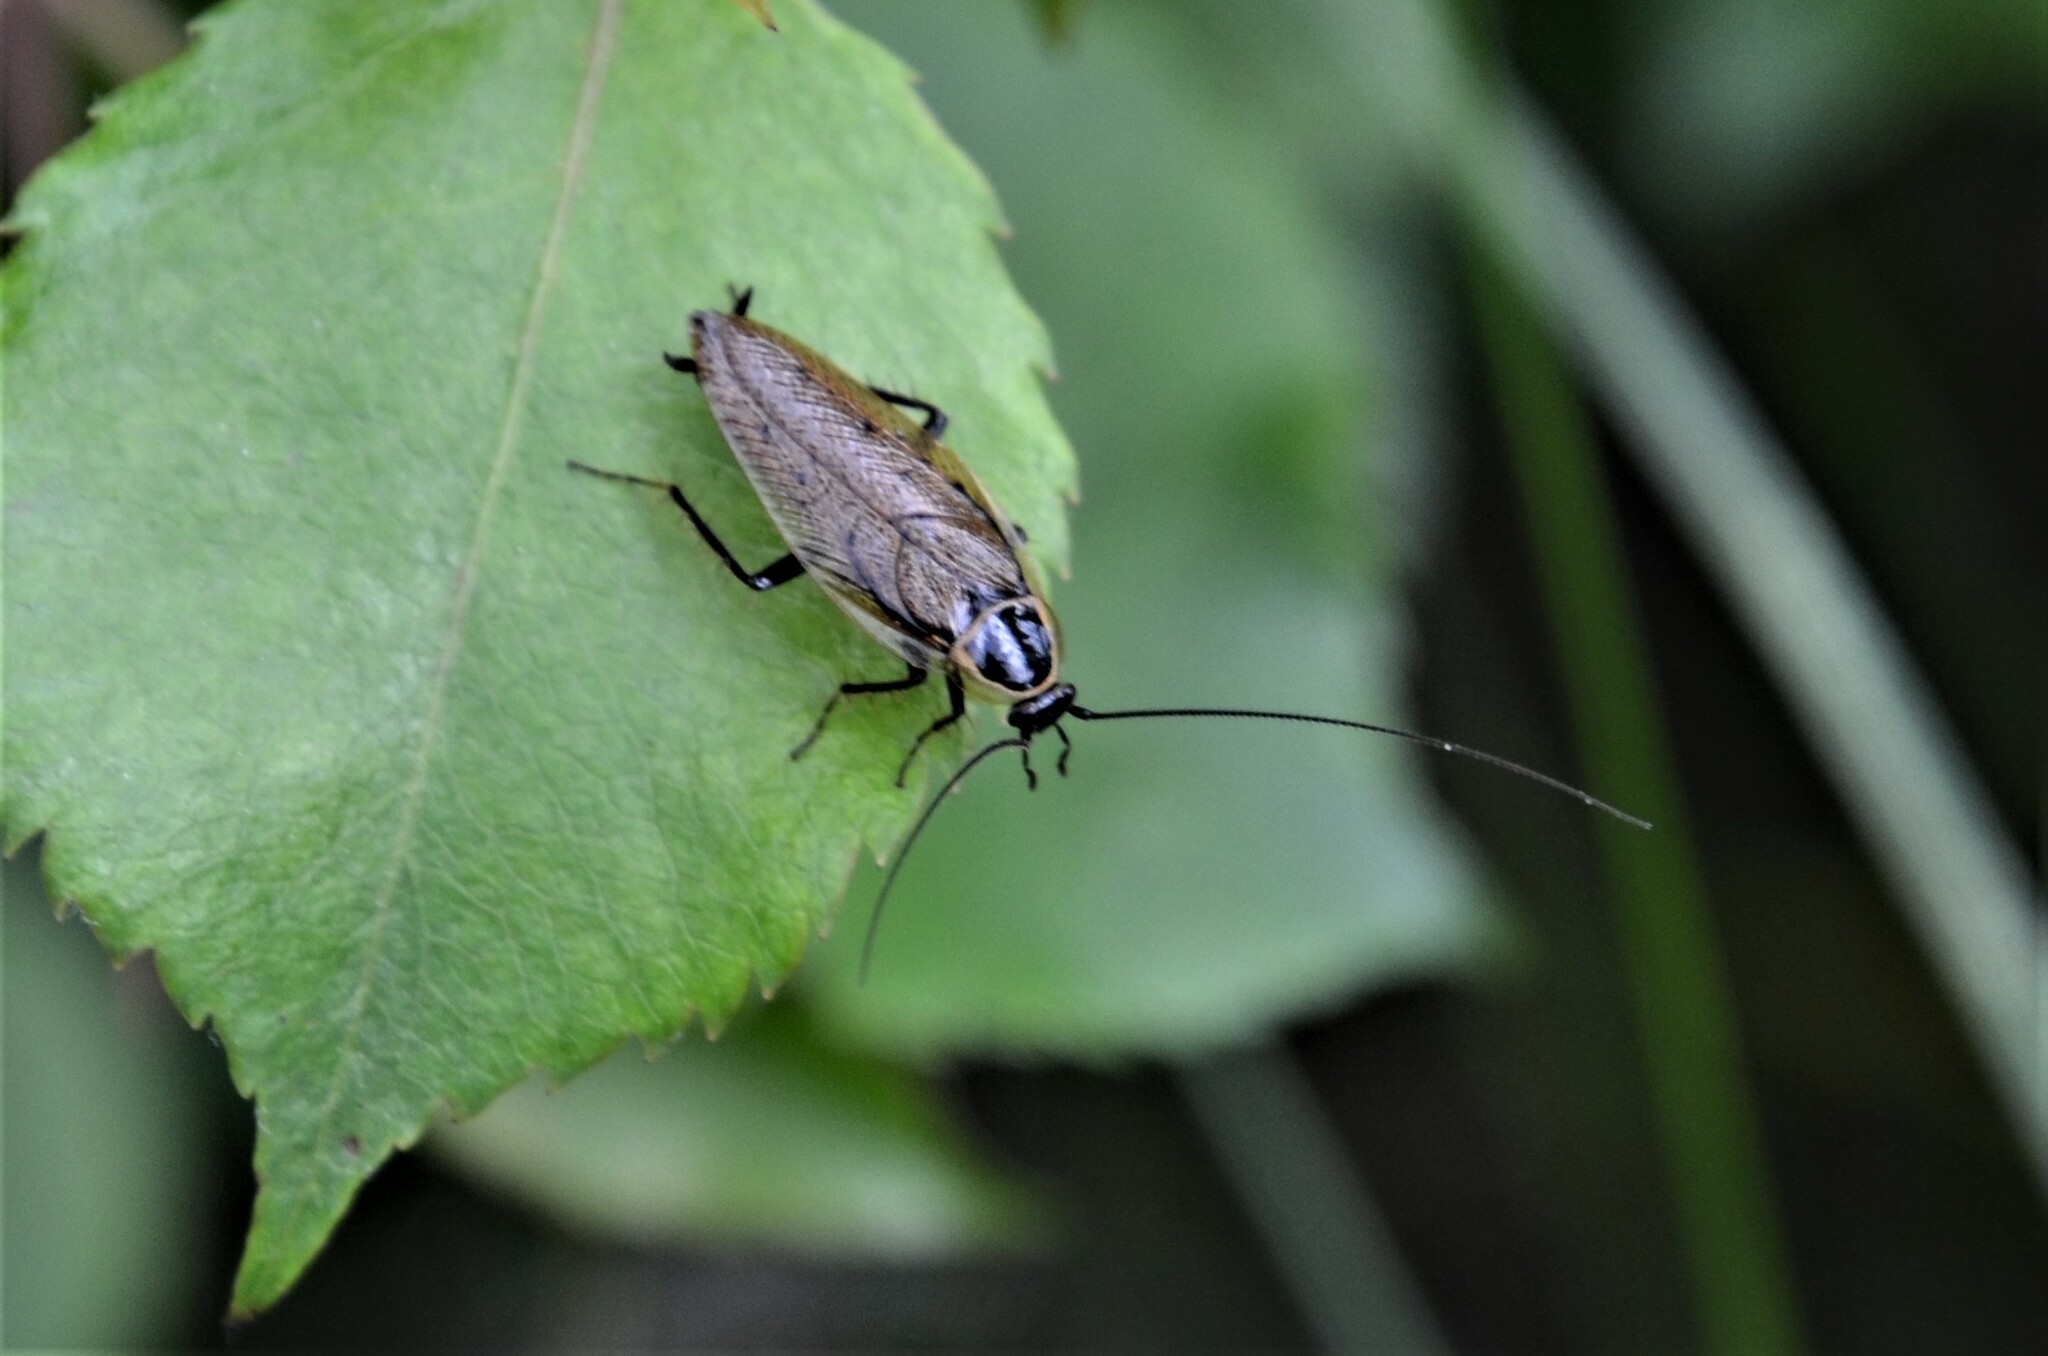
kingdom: Animalia
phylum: Arthropoda
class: Insecta
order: Blattodea
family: Ectobiidae
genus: Ectobius
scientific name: Ectobius sylvestris
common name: Forest cockroach
